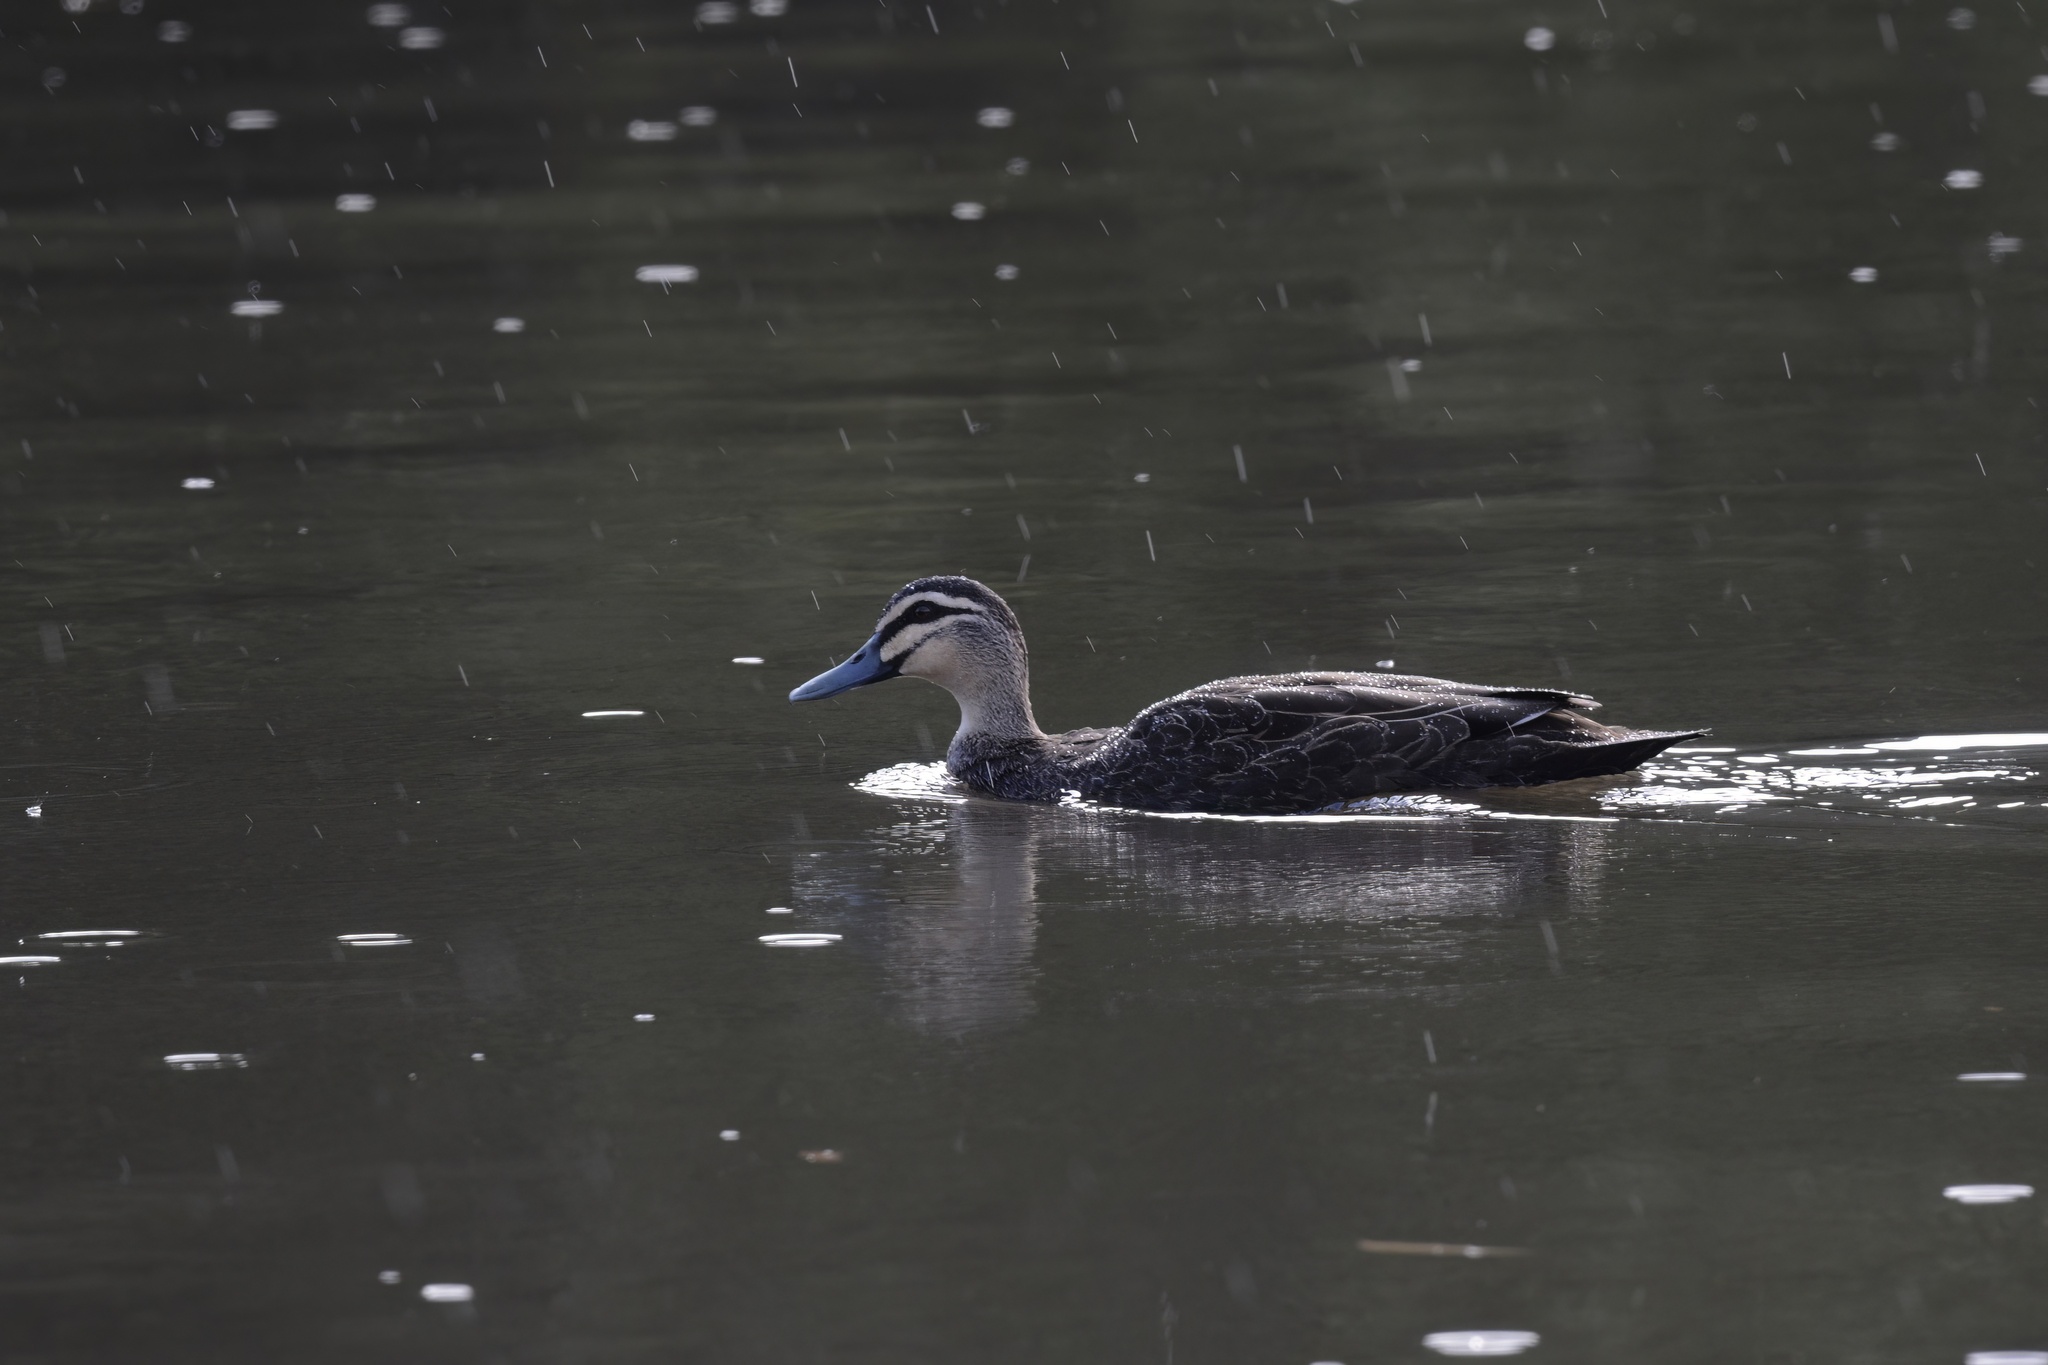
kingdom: Animalia
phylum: Chordata
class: Aves
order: Anseriformes
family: Anatidae
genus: Anas
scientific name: Anas superciliosa
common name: Pacific black duck
